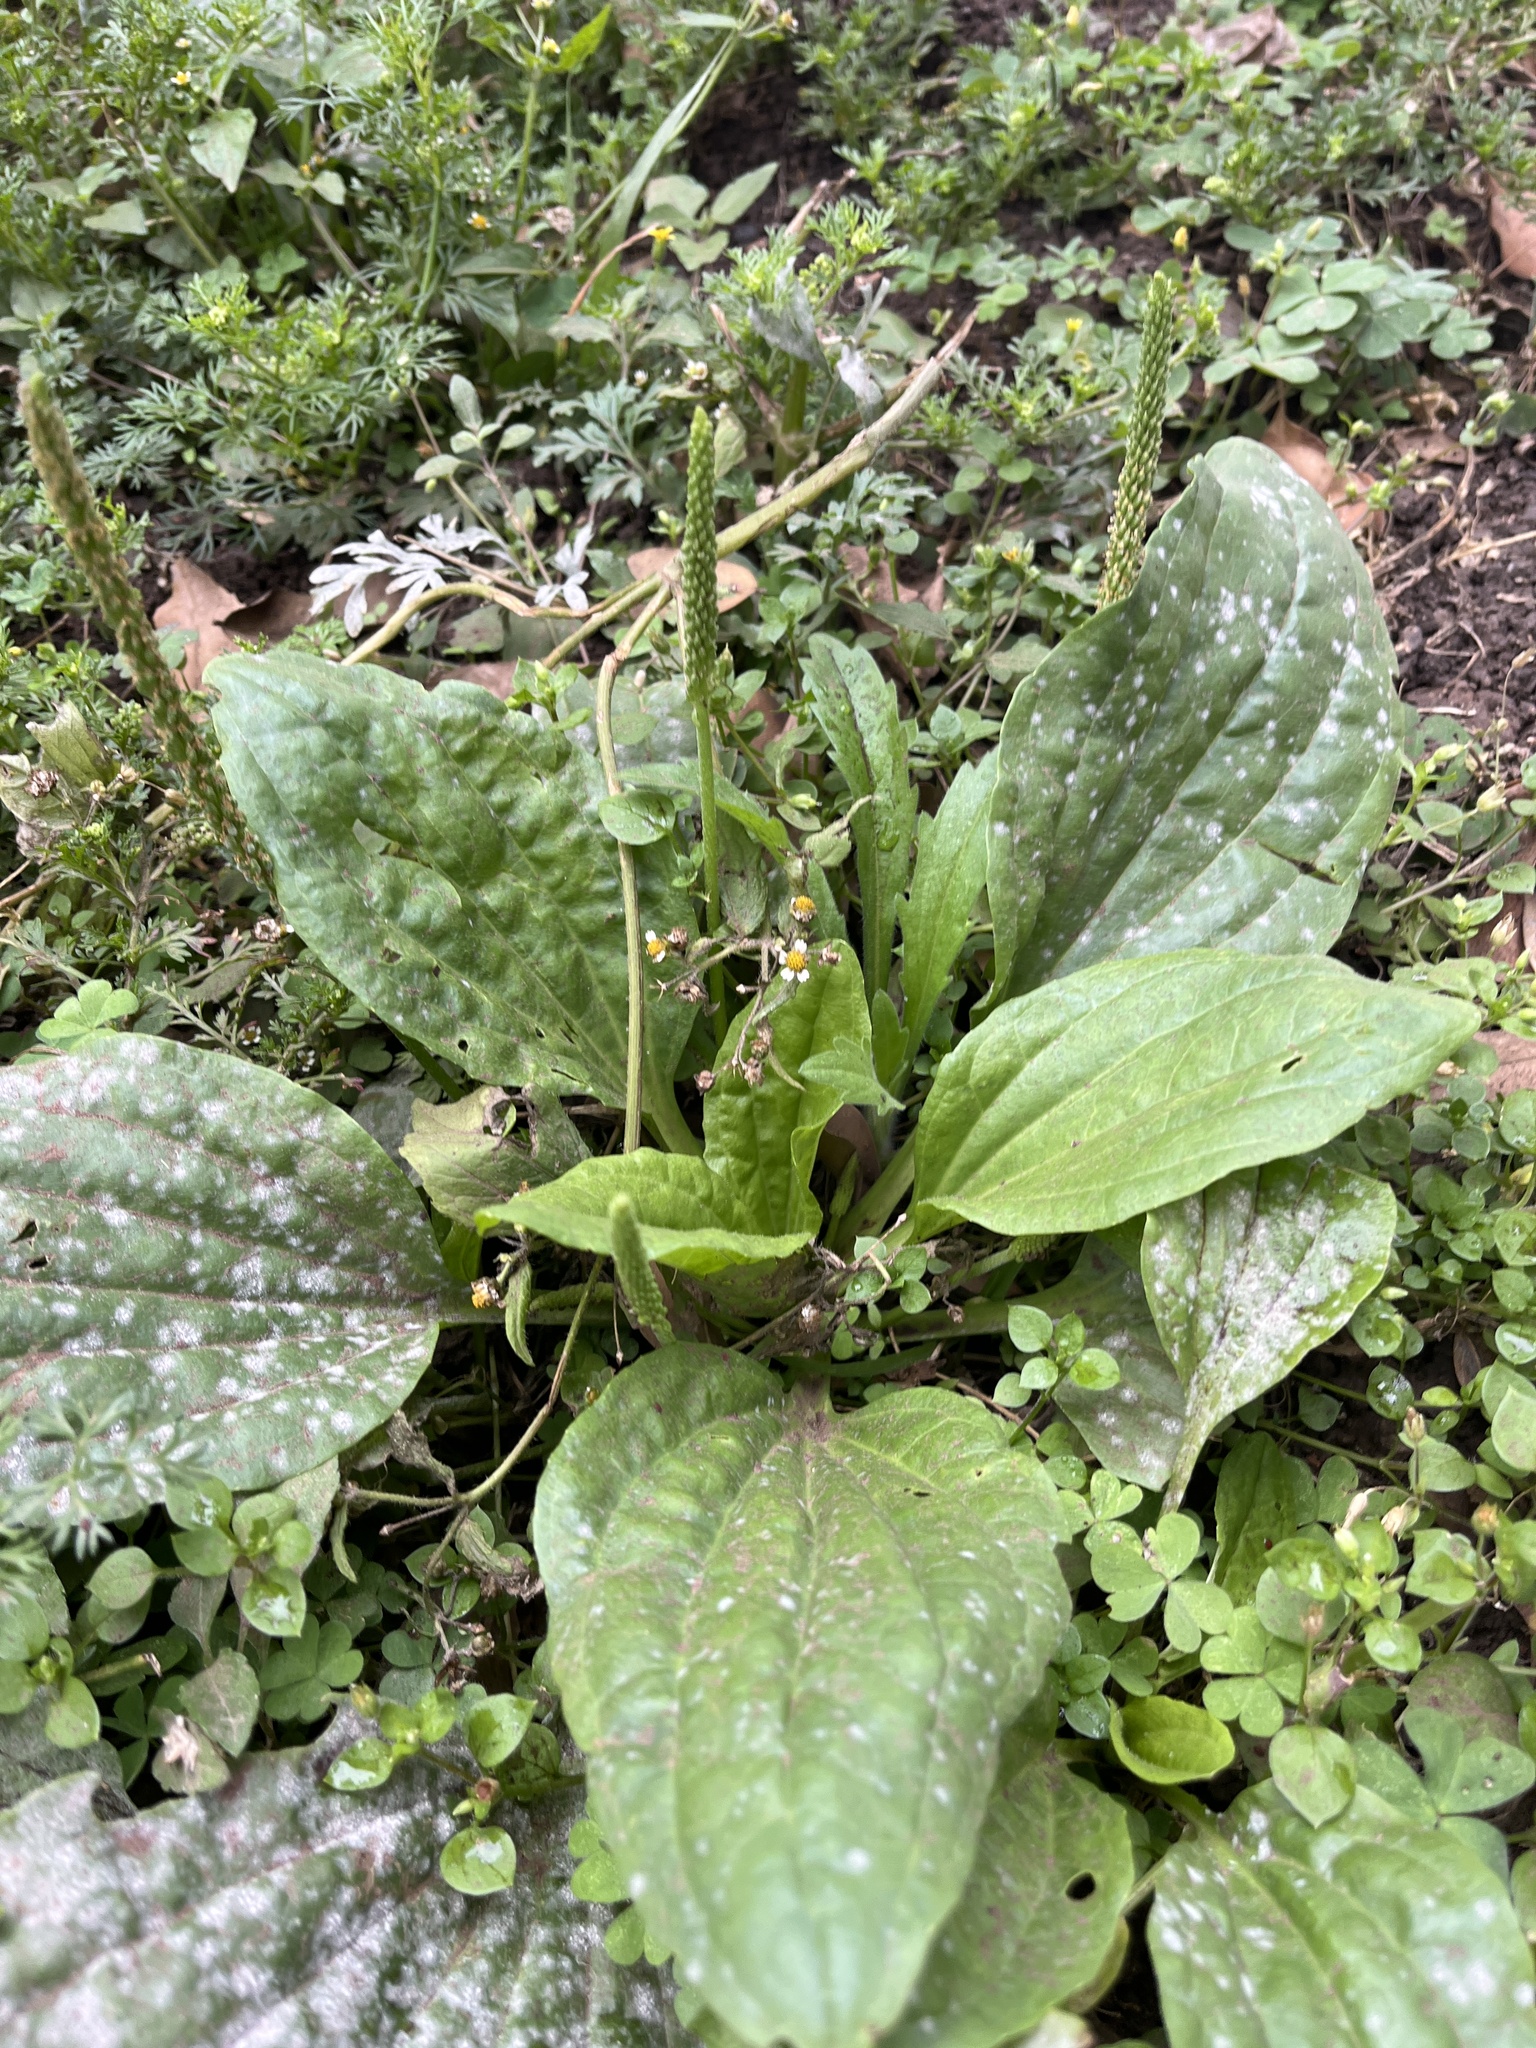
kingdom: Plantae
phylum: Tracheophyta
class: Magnoliopsida
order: Lamiales
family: Plantaginaceae
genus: Plantago
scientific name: Plantago major
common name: Common plantain
